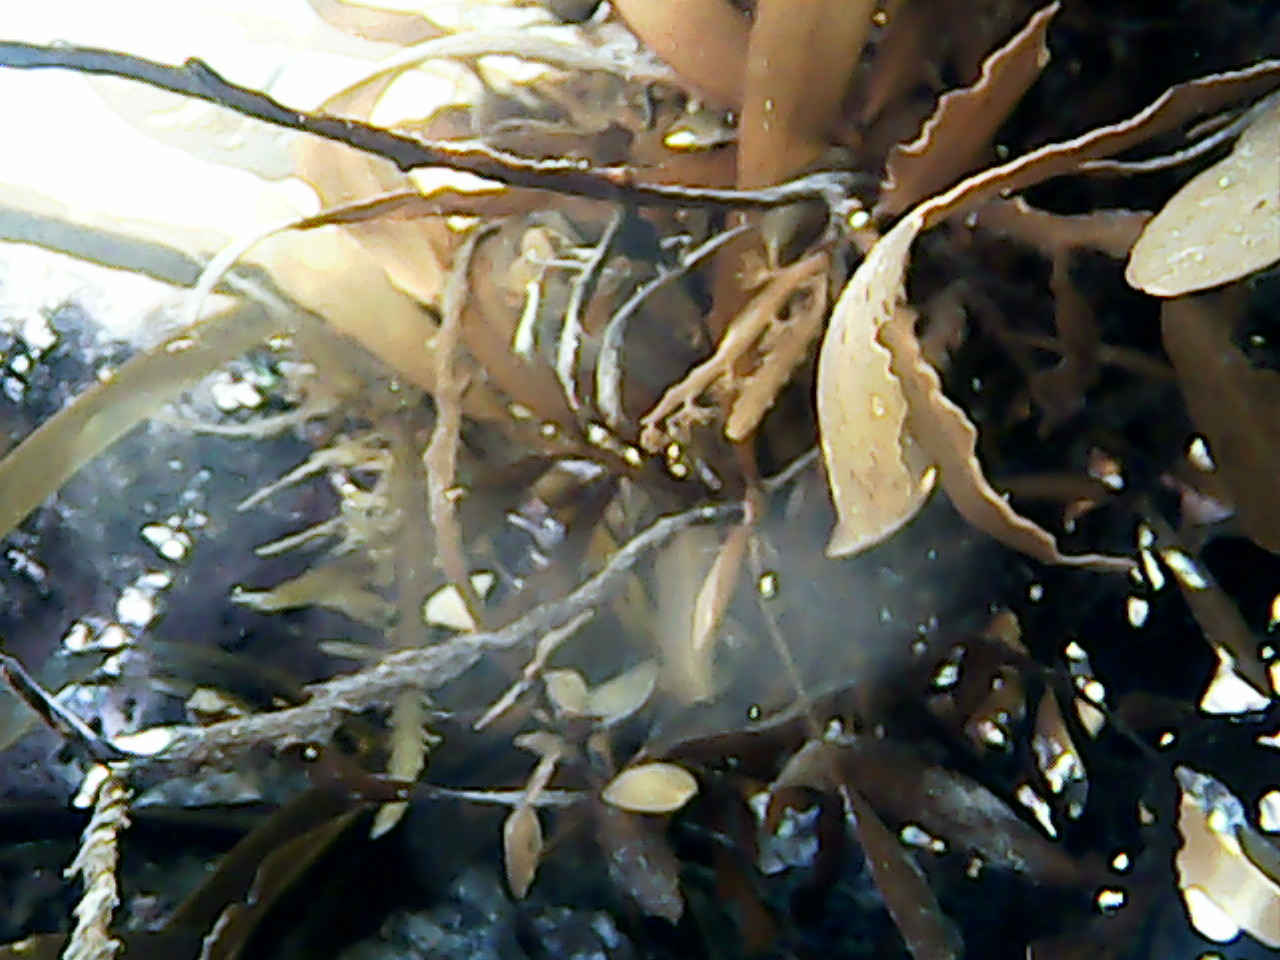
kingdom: Chromista
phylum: Ochrophyta
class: Phaeophyceae
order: Fucales
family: Sargassaceae
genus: Carpophyllum
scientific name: Carpophyllum maschalocarpum
